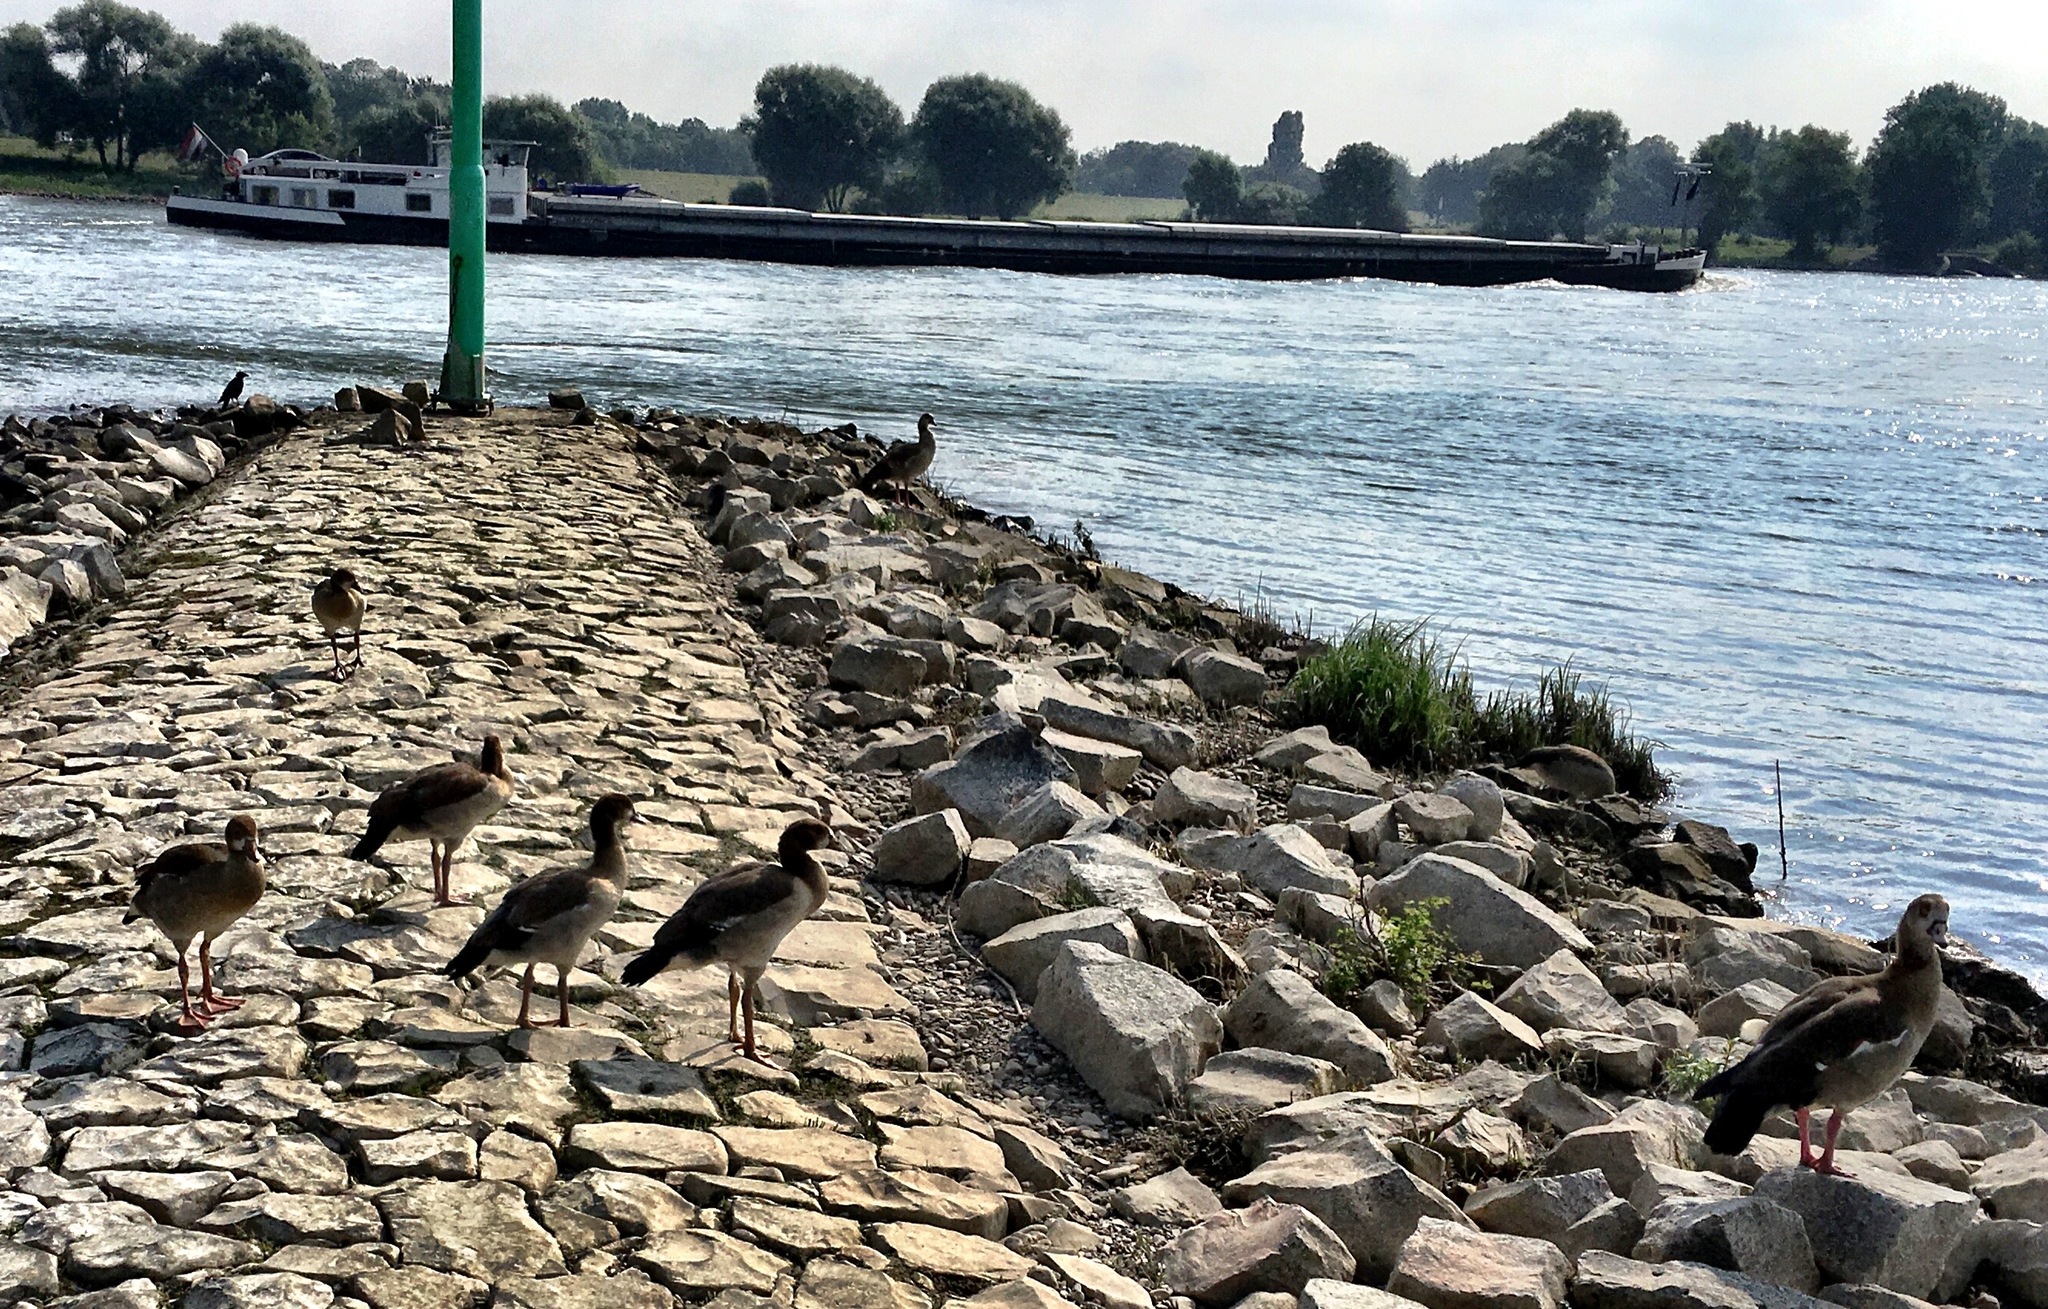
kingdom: Animalia
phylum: Chordata
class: Aves
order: Anseriformes
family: Anatidae
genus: Alopochen
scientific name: Alopochen aegyptiaca
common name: Egyptian goose
